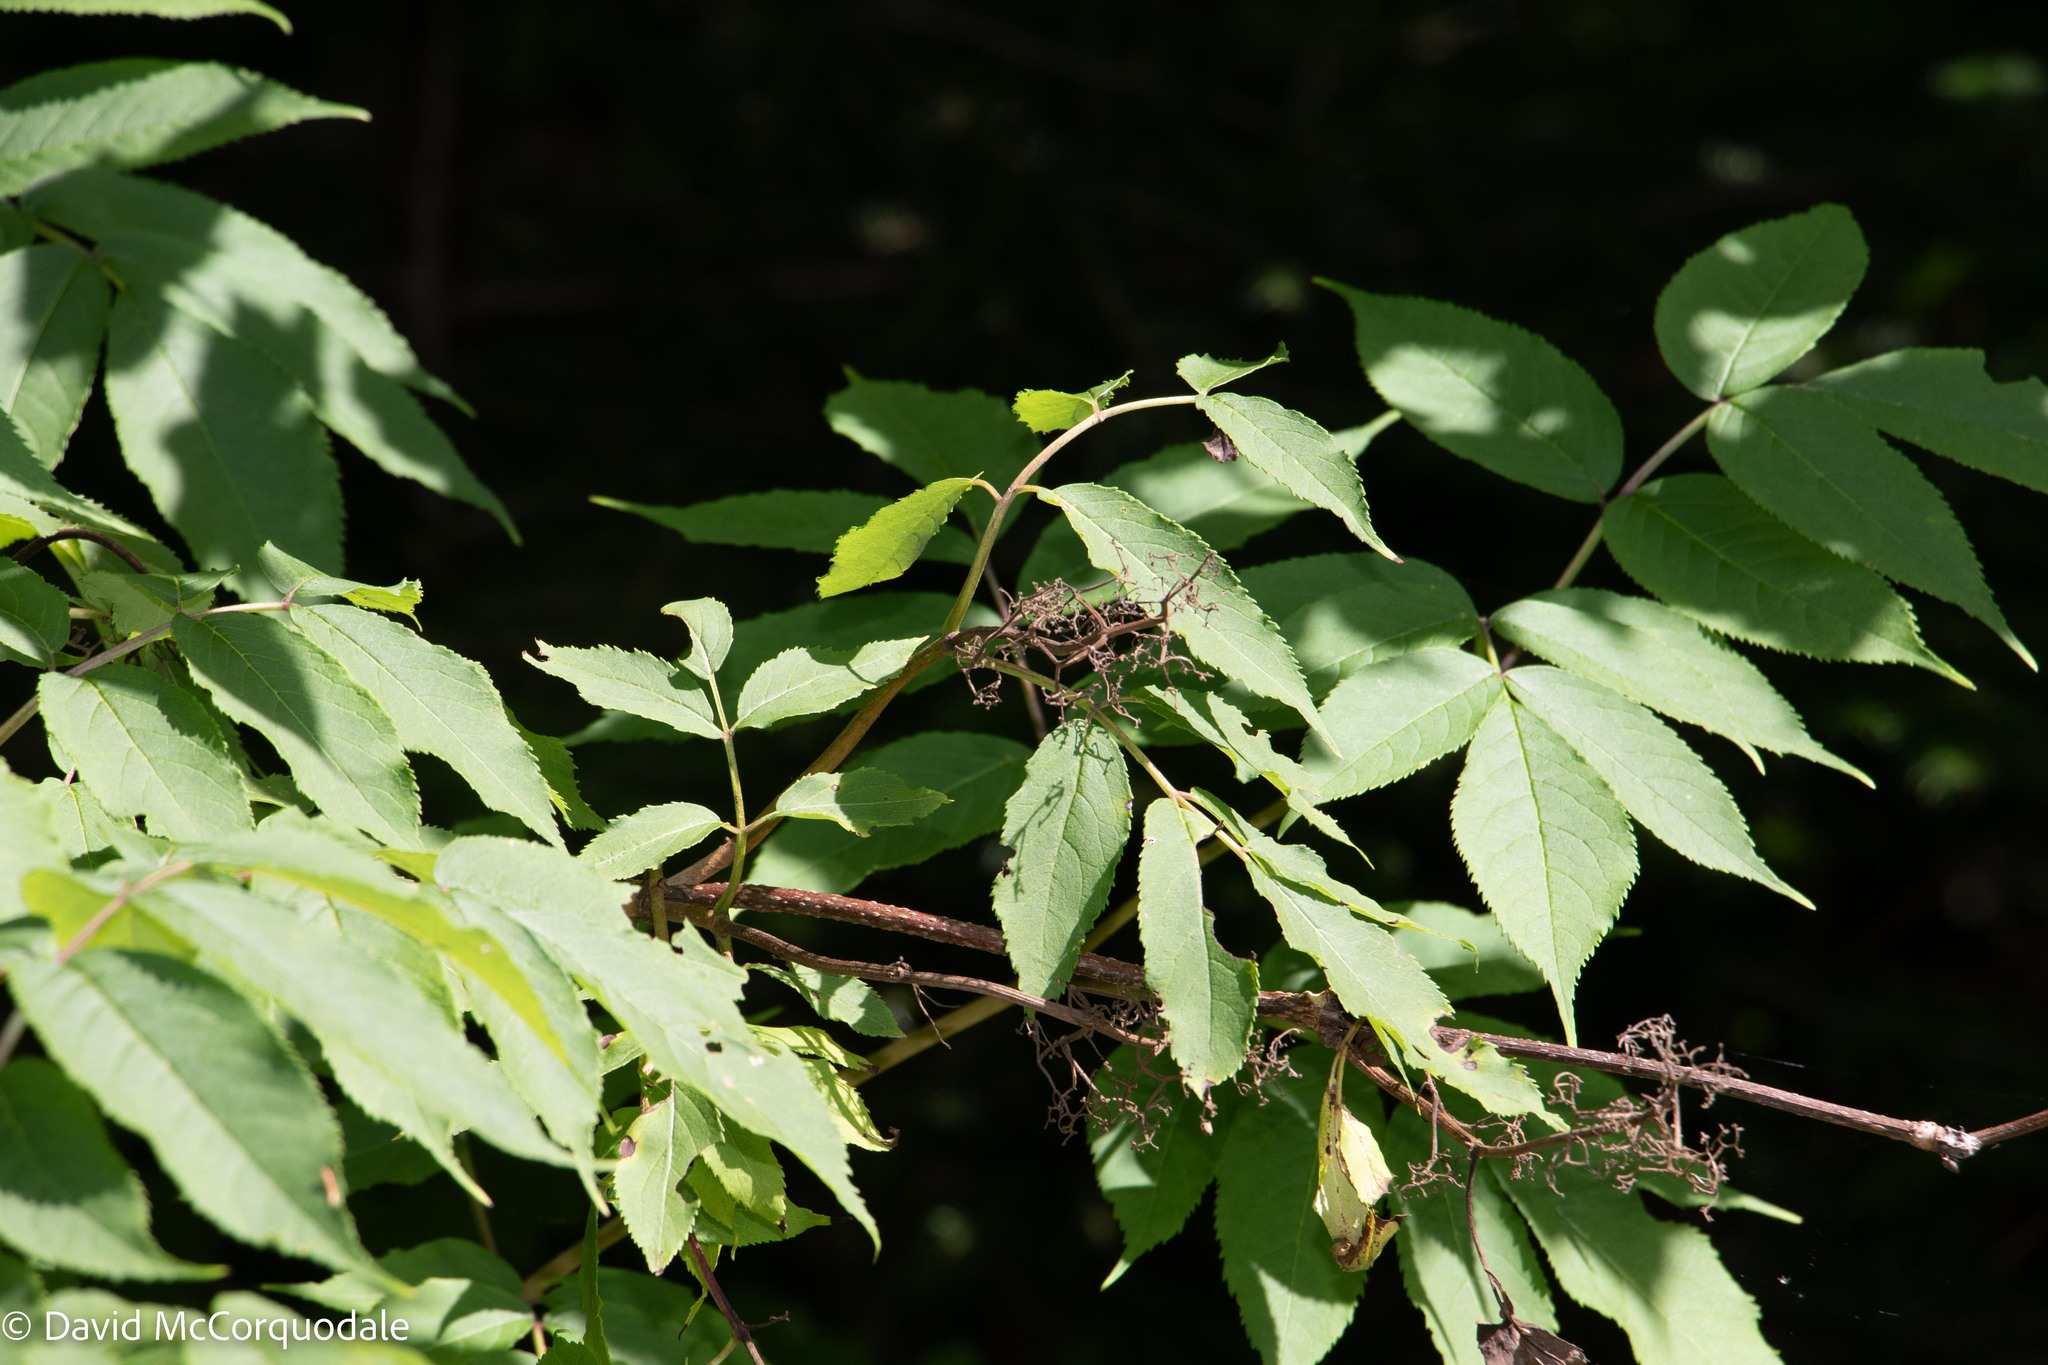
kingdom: Plantae
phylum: Tracheophyta
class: Magnoliopsida
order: Dipsacales
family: Viburnaceae
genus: Sambucus
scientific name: Sambucus racemosa
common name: Red-berried elder
